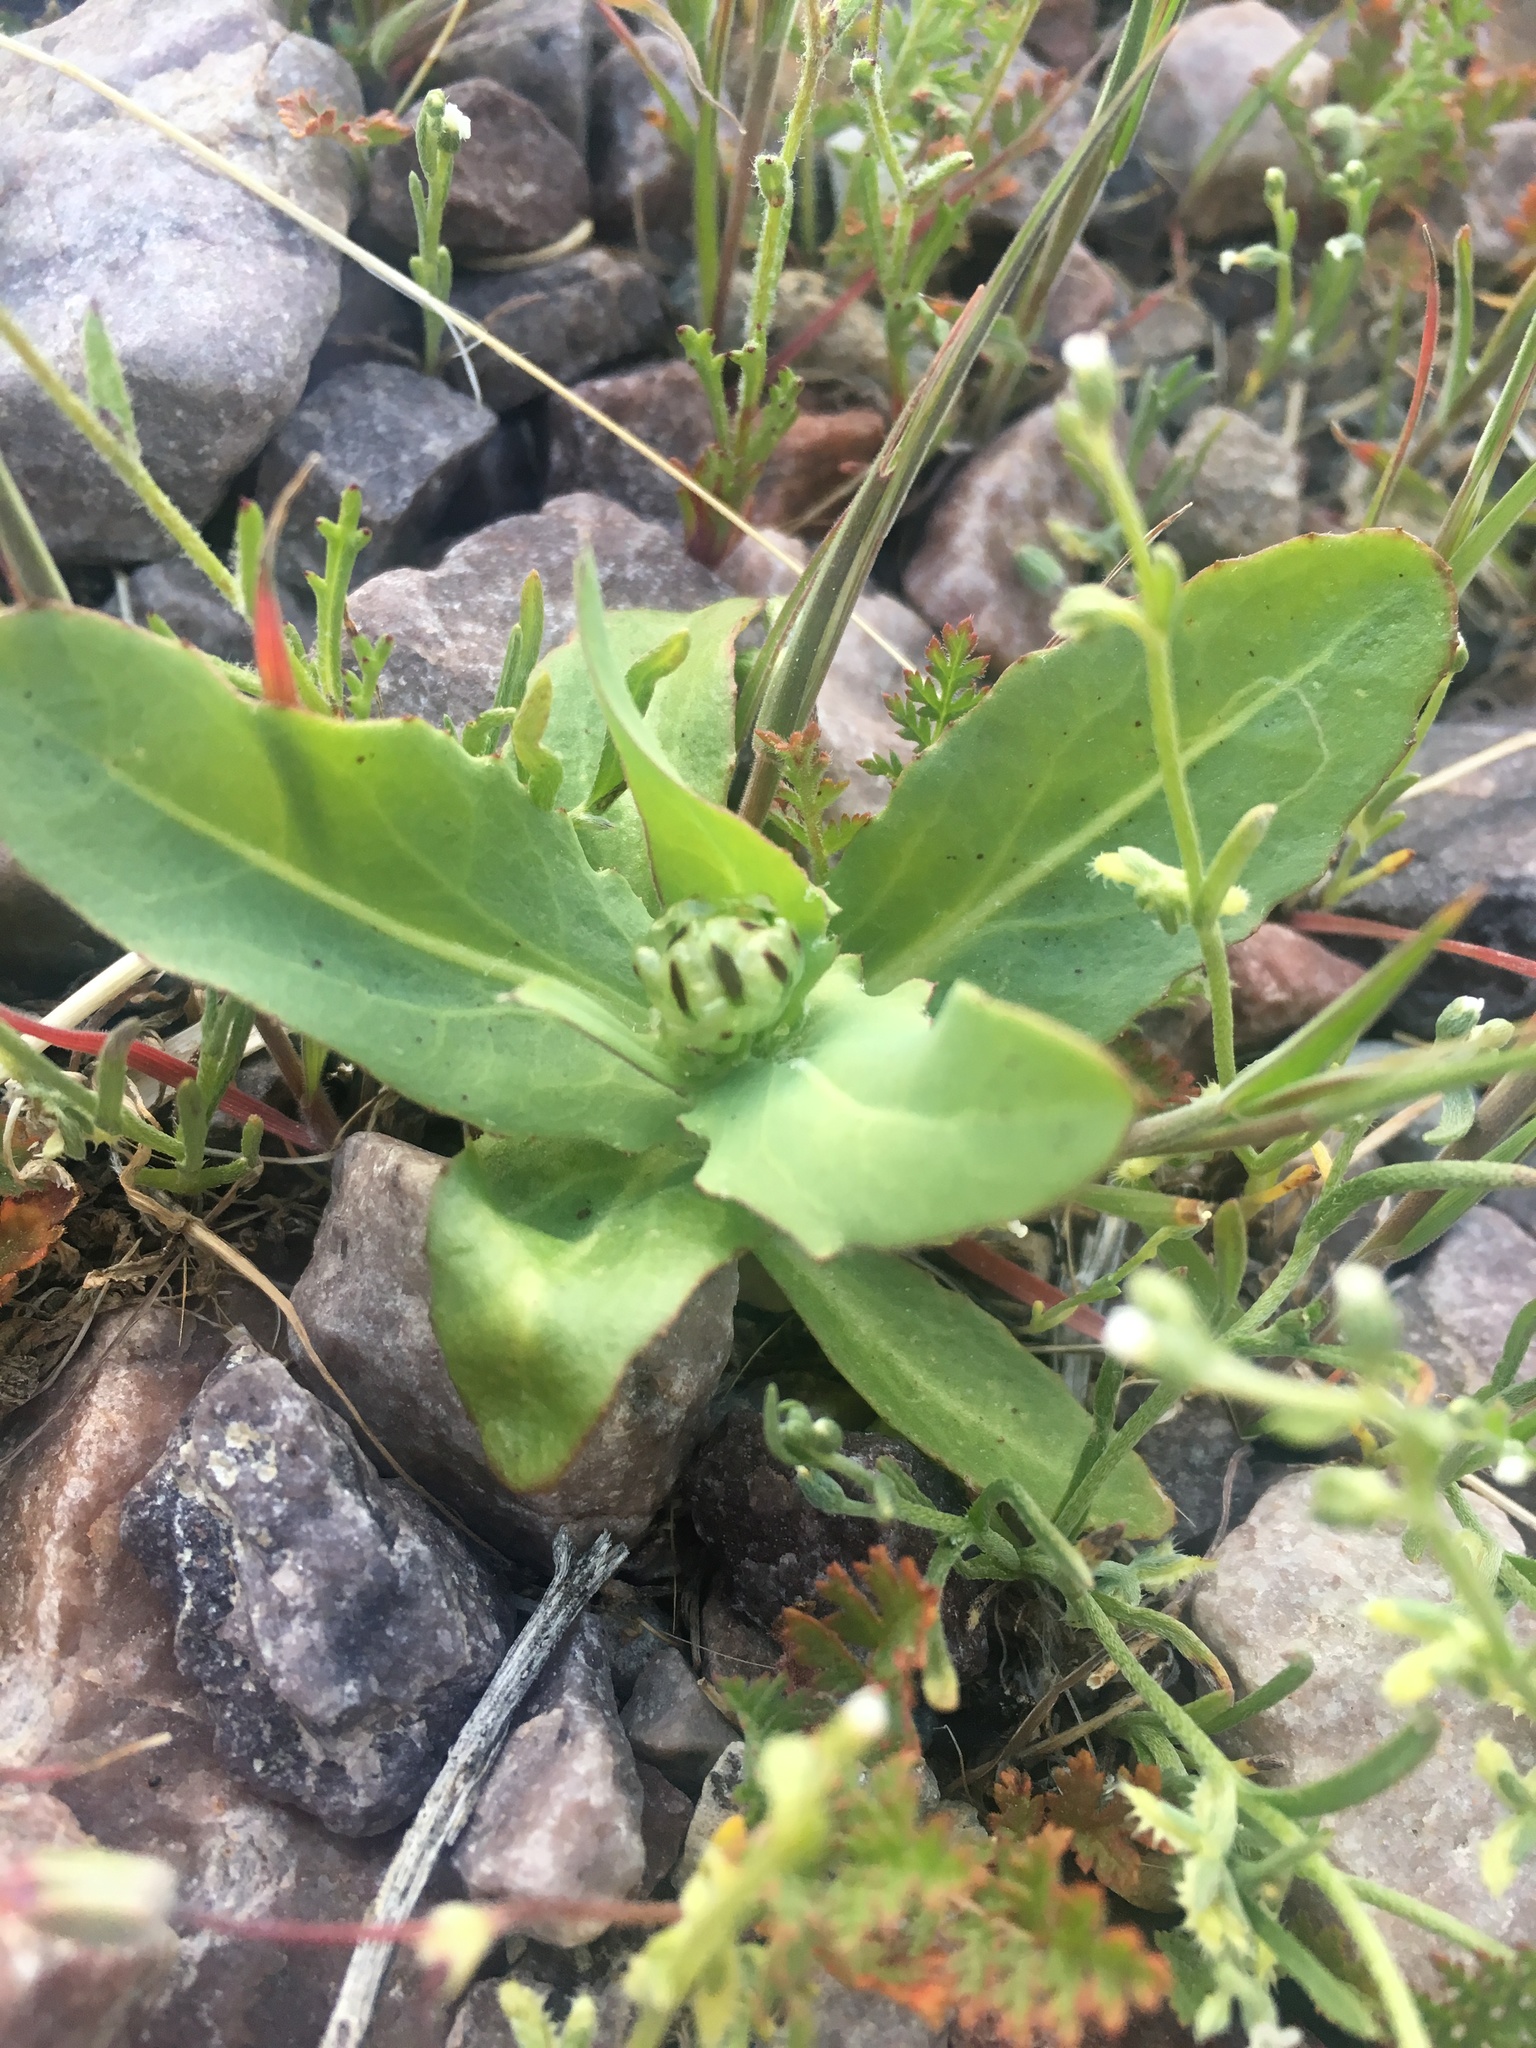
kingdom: Plantae
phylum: Tracheophyta
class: Magnoliopsida
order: Asterales
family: Asteraceae
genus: Malacothrix
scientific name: Malacothrix coulteri
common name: Snake's-head
